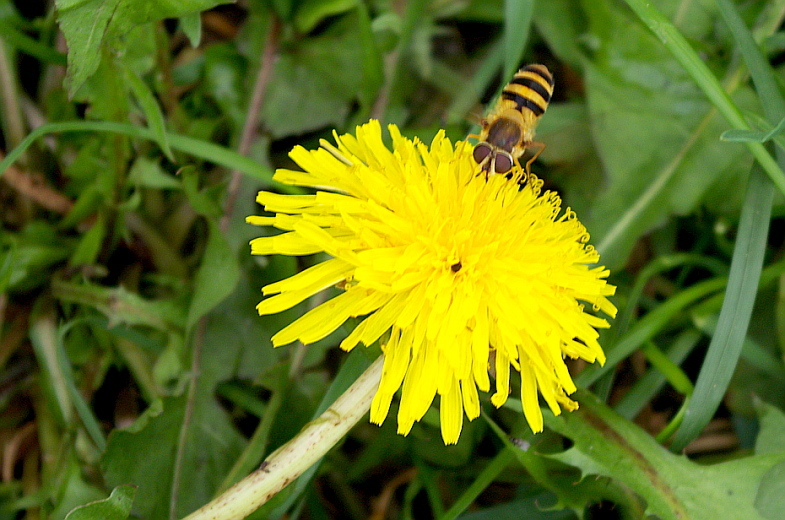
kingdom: Plantae
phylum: Tracheophyta
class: Magnoliopsida
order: Asterales
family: Asteraceae
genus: Taraxacum
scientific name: Taraxacum officinale
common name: Common dandelion
